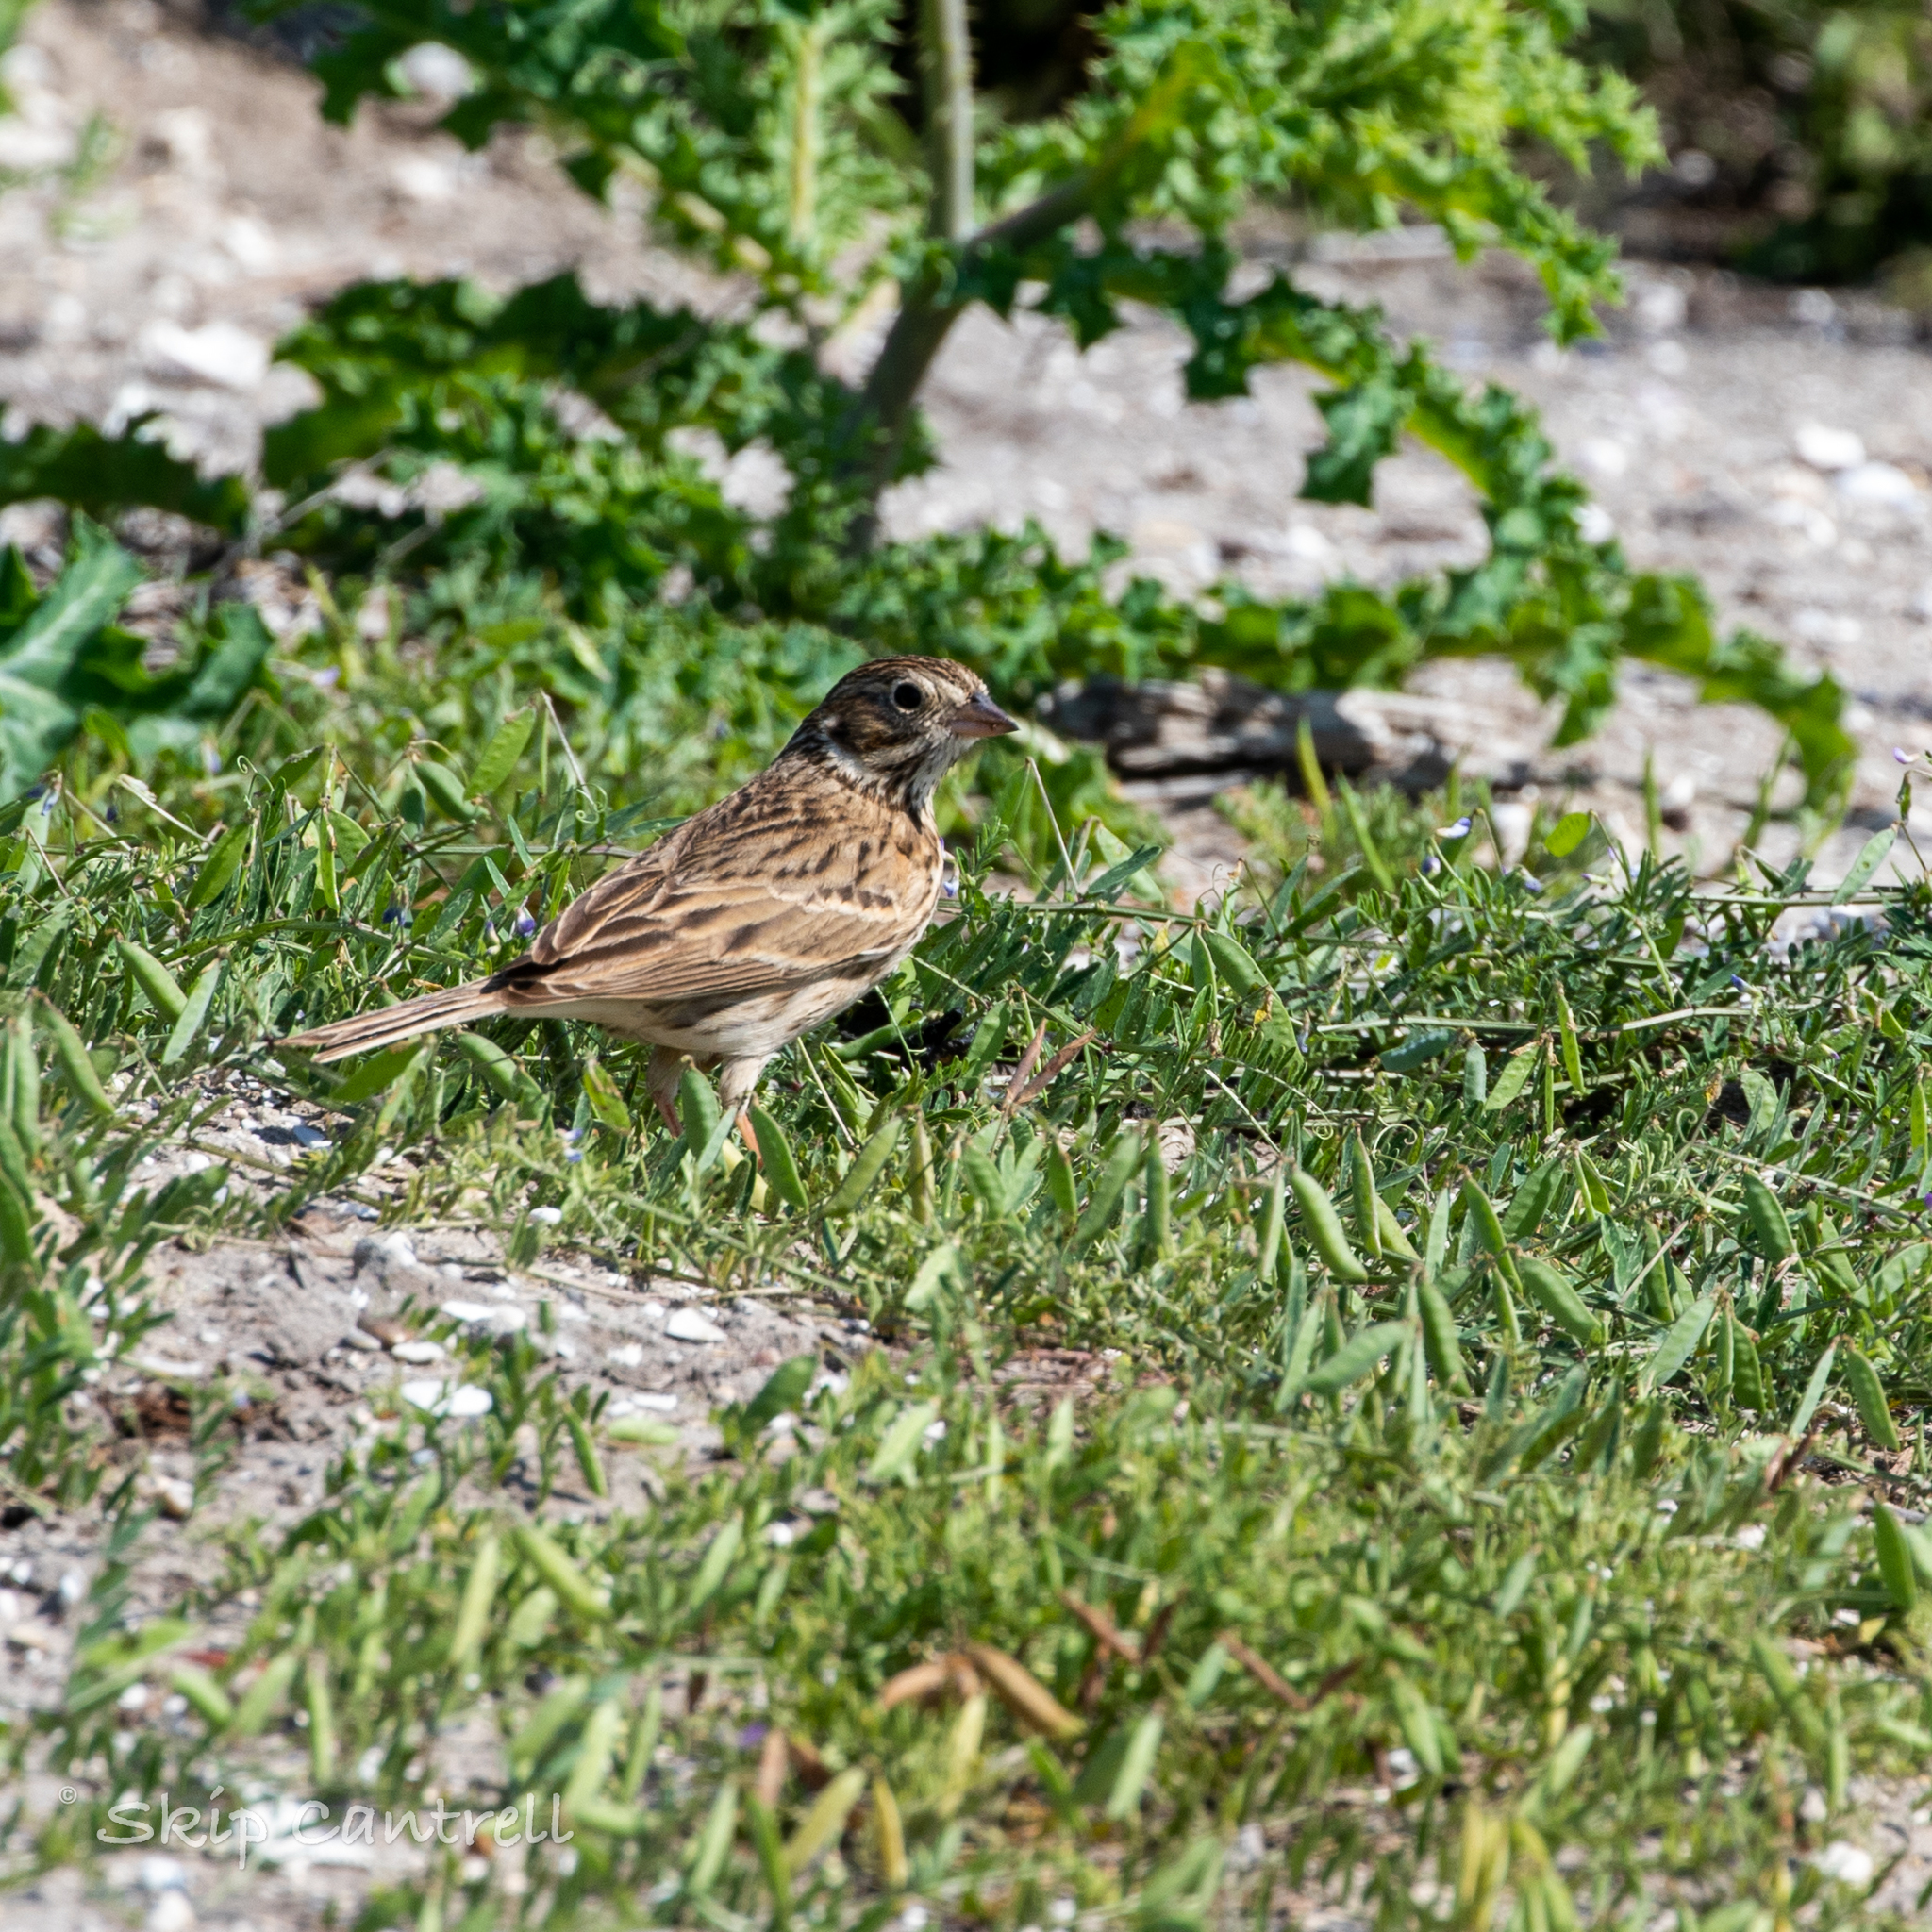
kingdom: Animalia
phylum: Chordata
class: Aves
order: Passeriformes
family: Passerellidae
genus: Pooecetes
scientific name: Pooecetes gramineus
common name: Vesper sparrow
